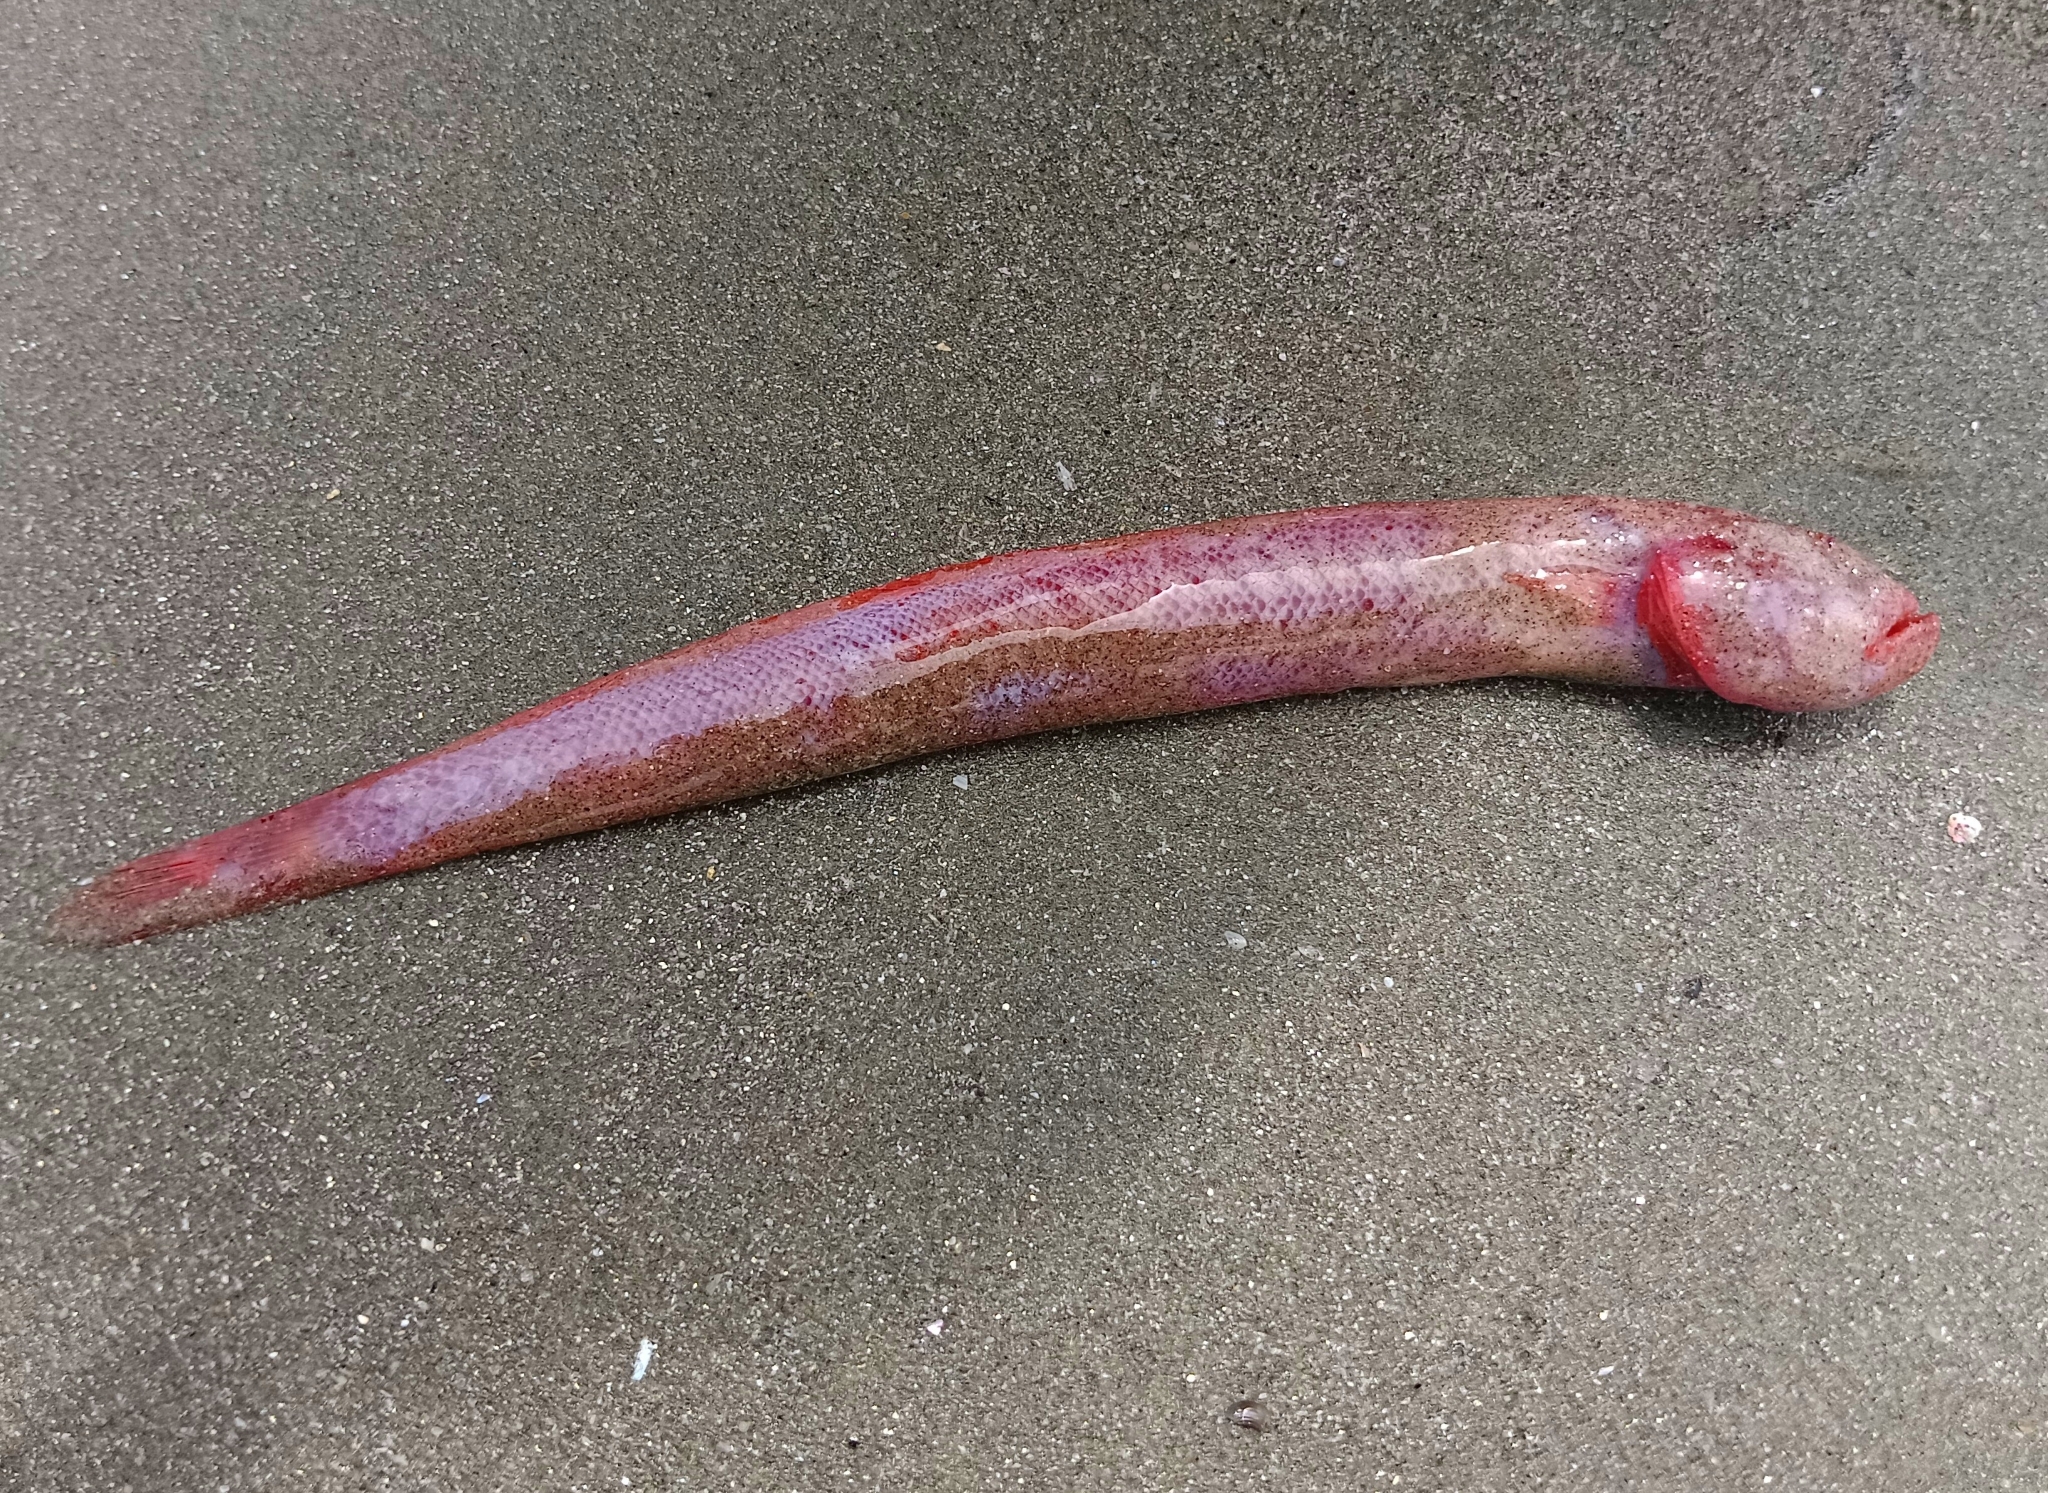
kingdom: Animalia
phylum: Chordata
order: Perciformes
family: Gobiidae
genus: Trypauchen
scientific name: Trypauchen vagina
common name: Burrowing goby
